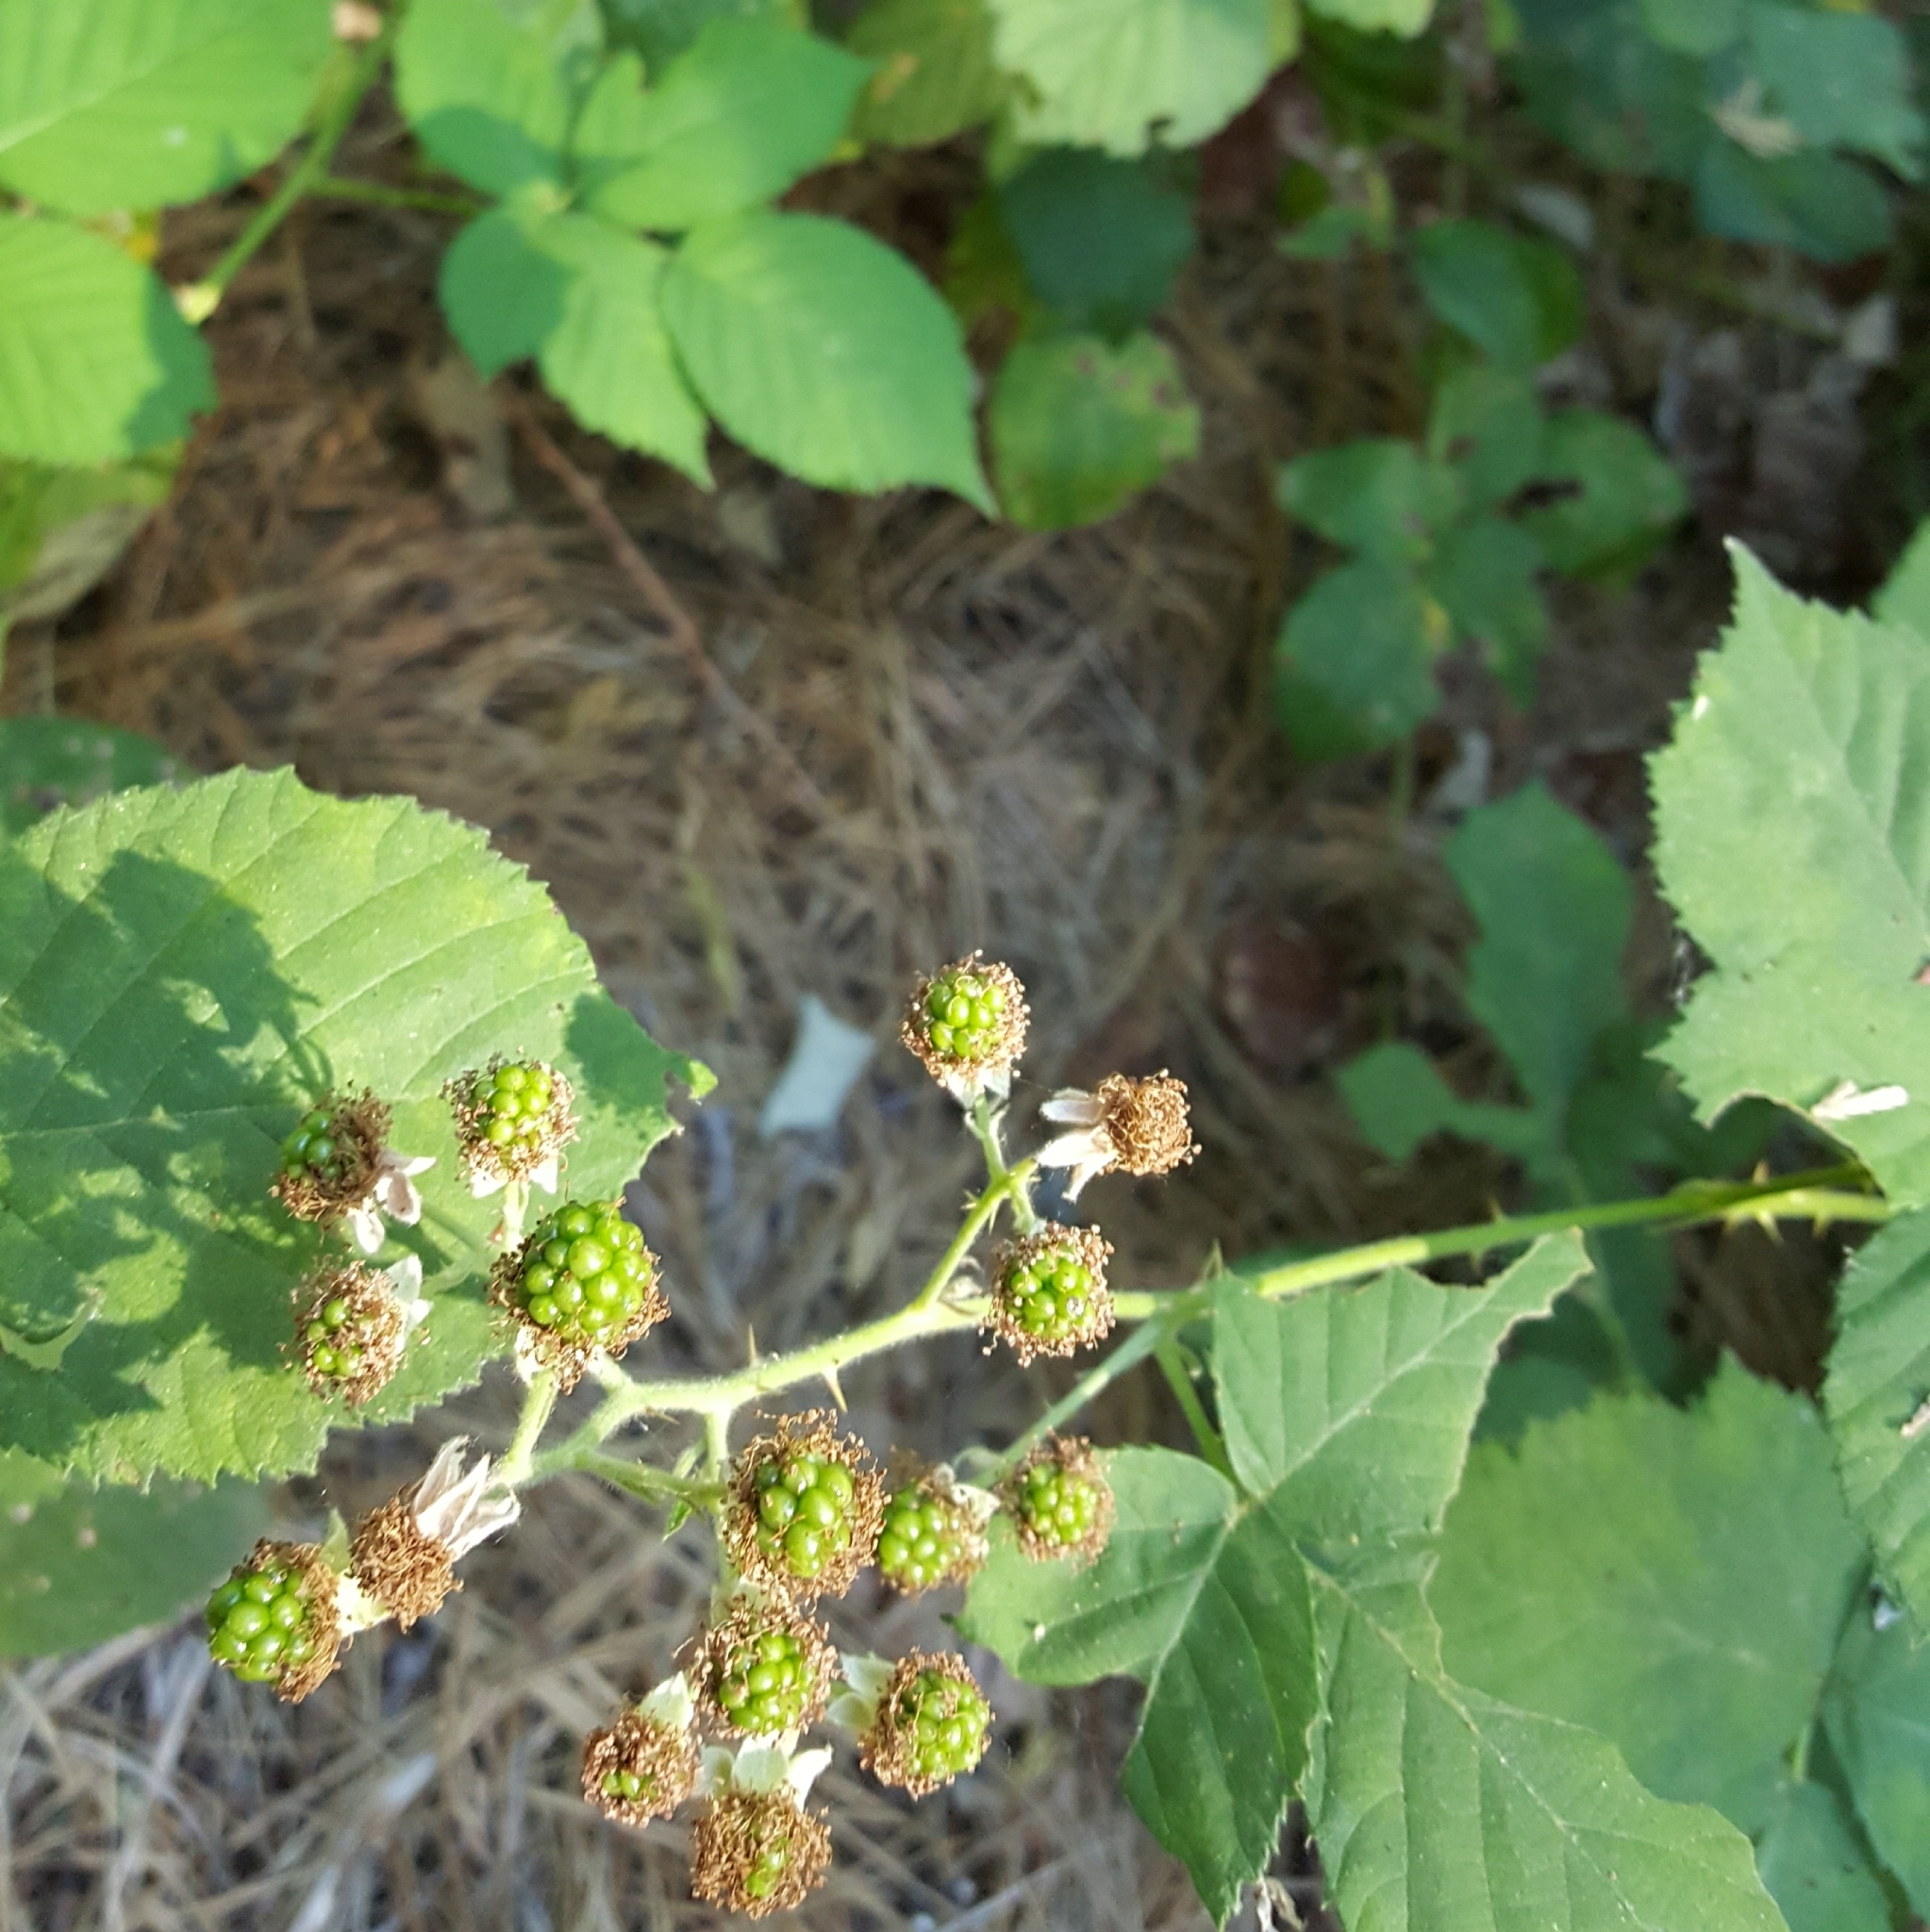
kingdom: Plantae
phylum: Tracheophyta
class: Magnoliopsida
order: Rosales
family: Rosaceae
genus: Rubus
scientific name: Rubus armeniacus
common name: Himalayan blackberry
